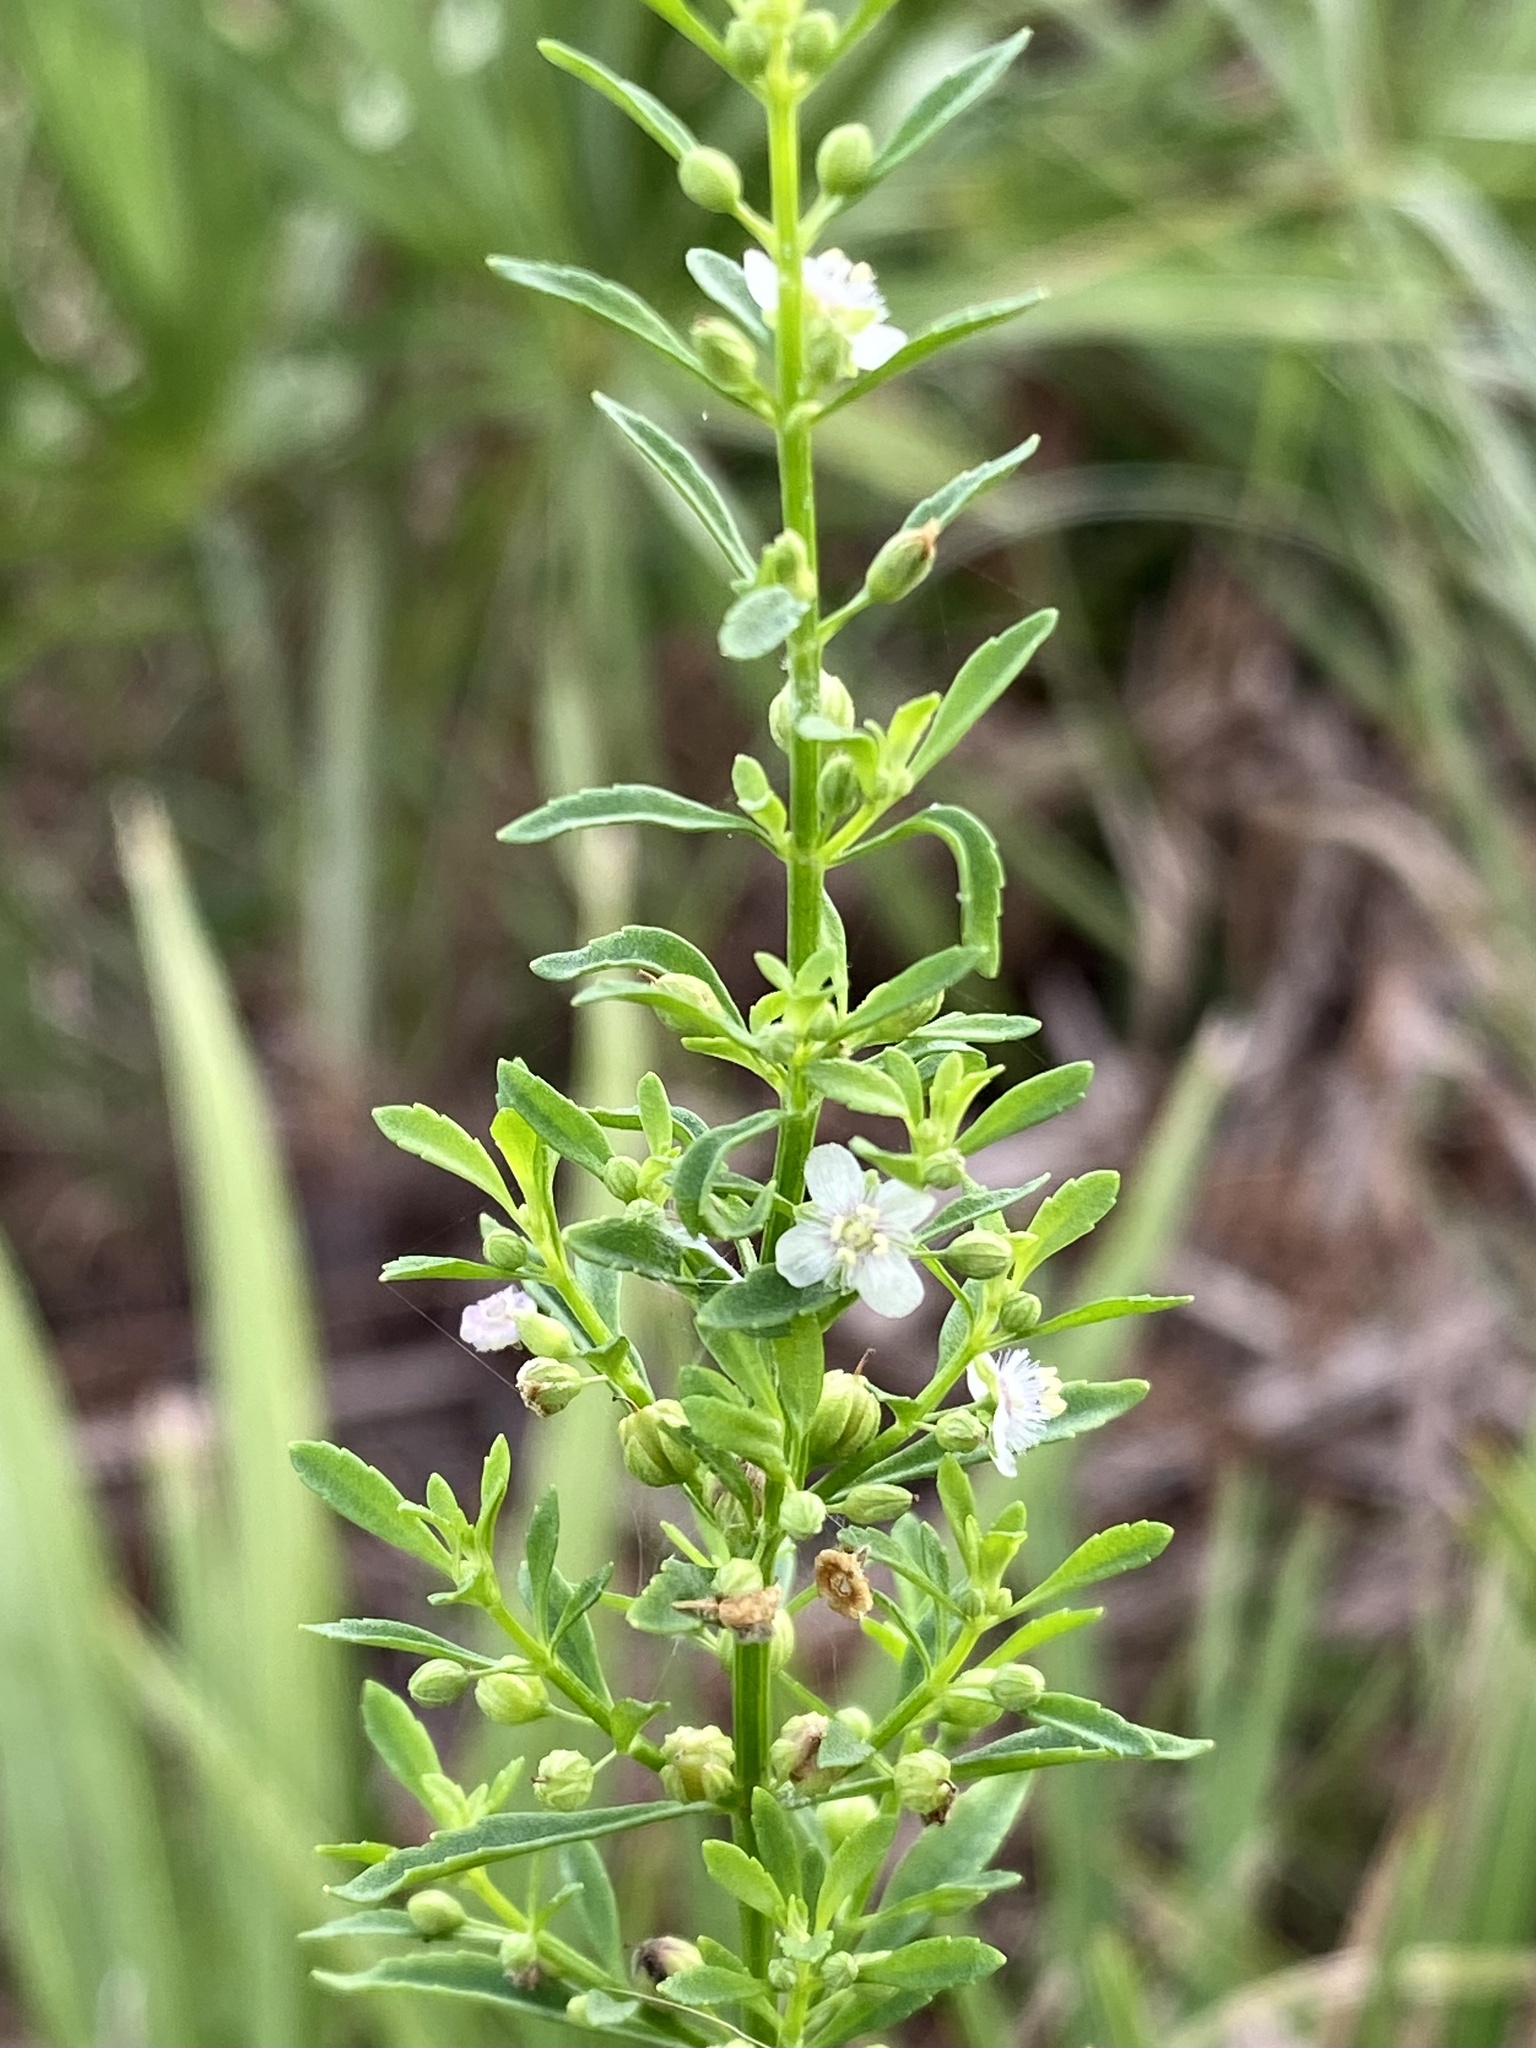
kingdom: Plantae
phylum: Tracheophyta
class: Magnoliopsida
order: Lamiales
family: Plantaginaceae
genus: Scoparia
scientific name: Scoparia dulcis
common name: Scoparia-weed
